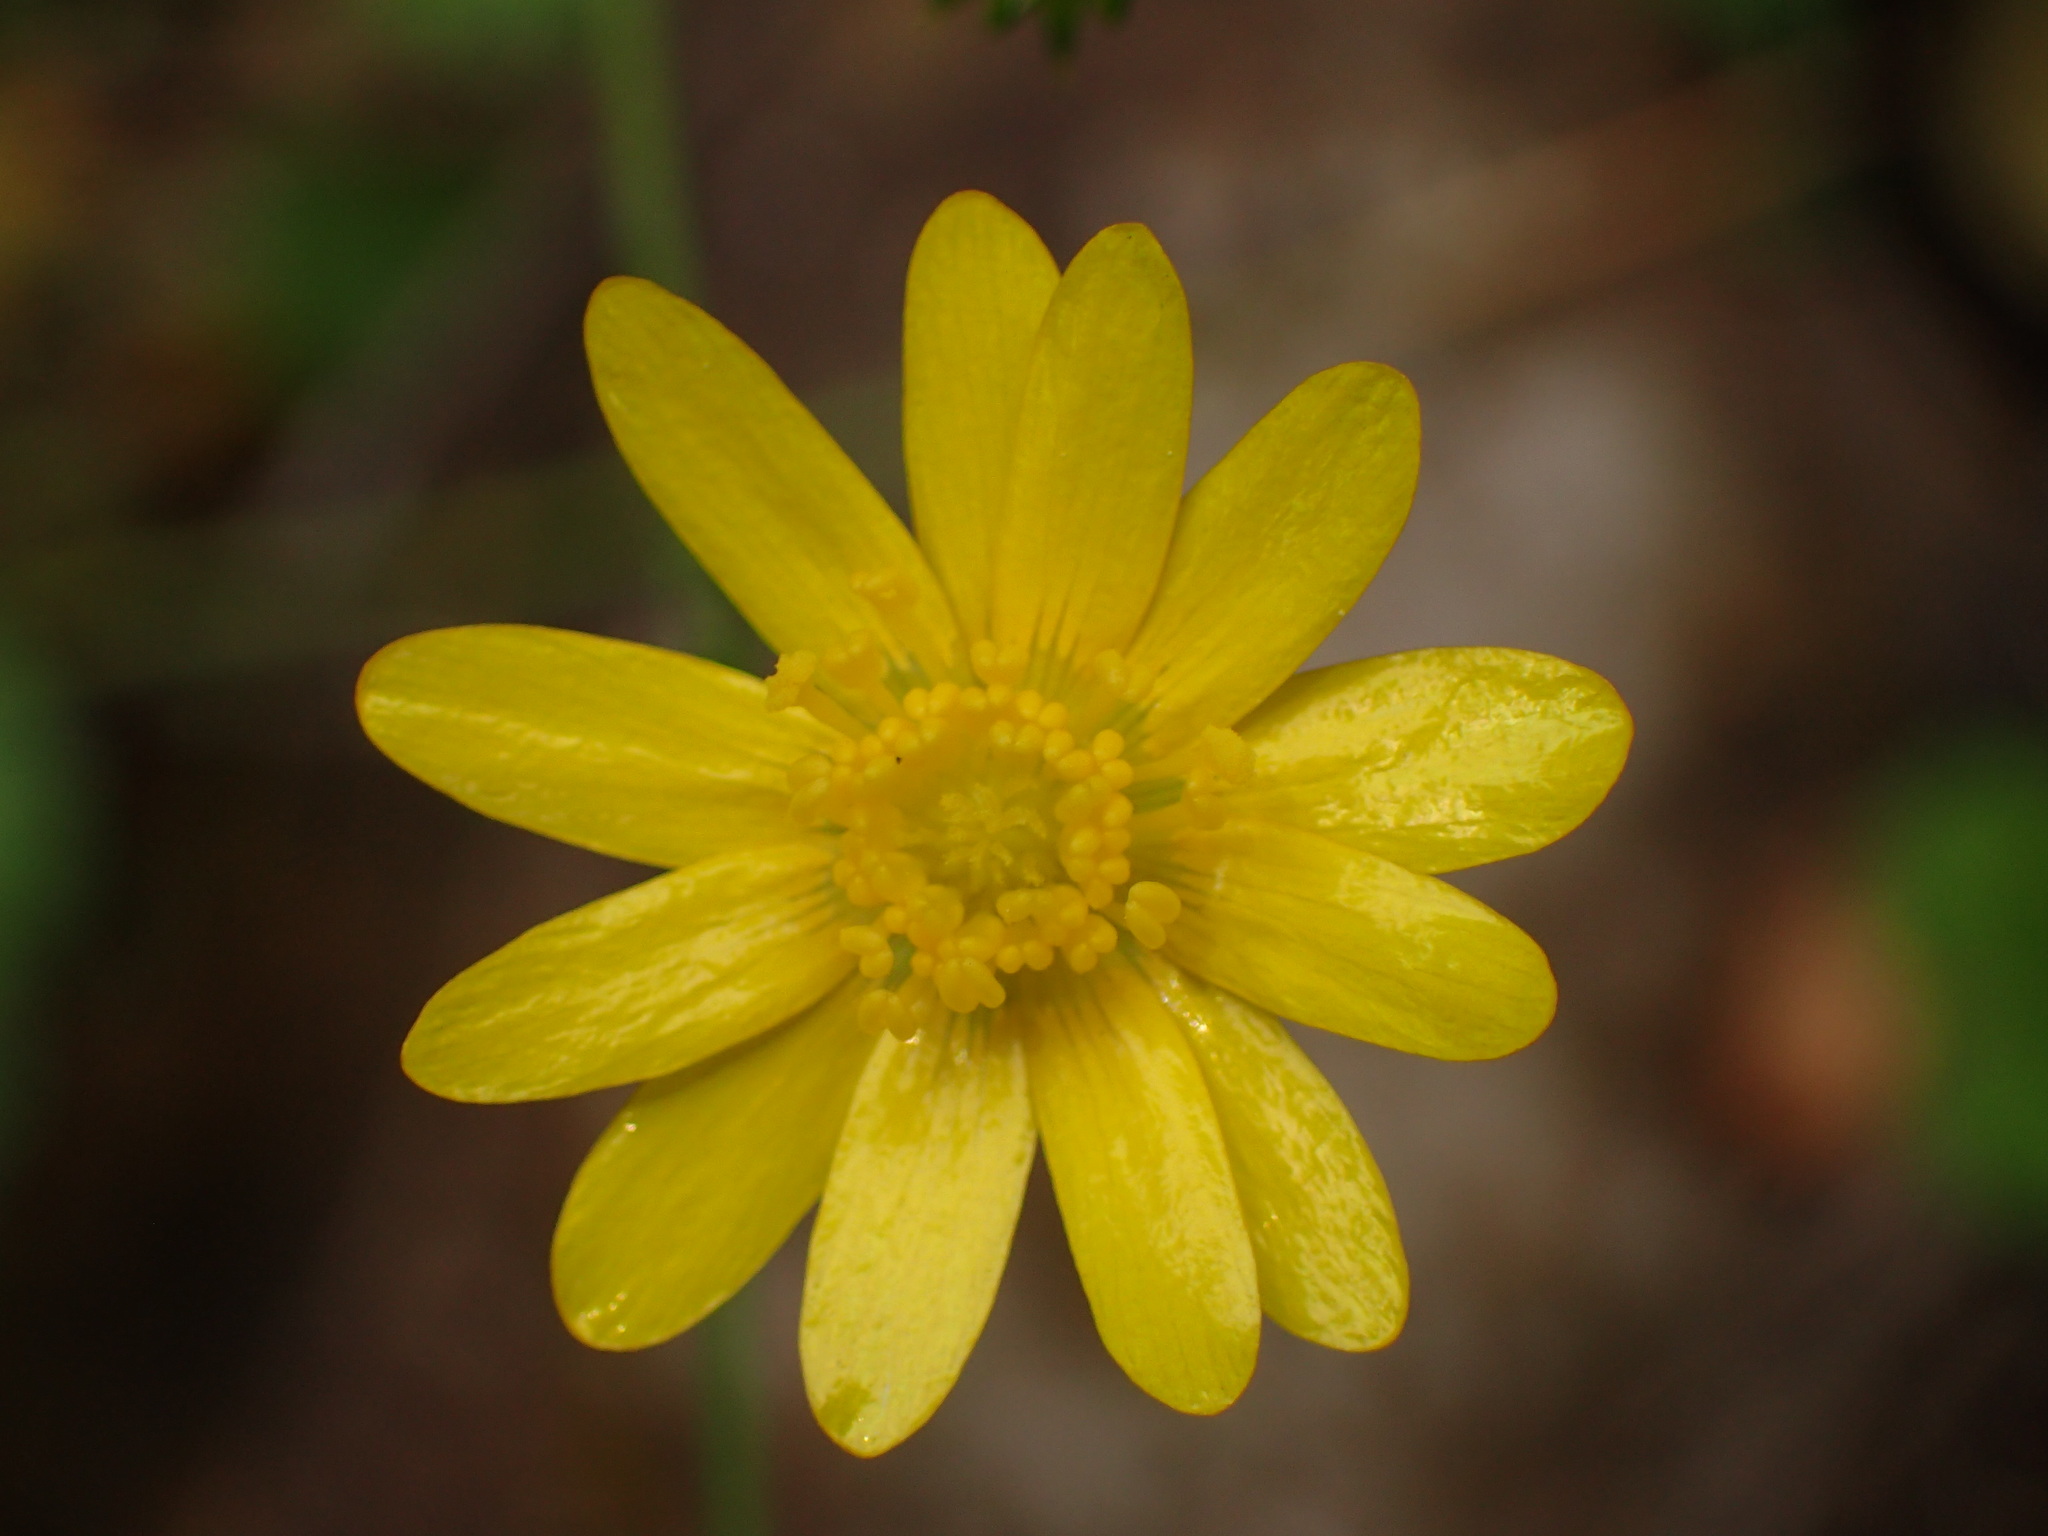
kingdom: Plantae
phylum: Tracheophyta
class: Magnoliopsida
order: Ranunculales
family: Ranunculaceae
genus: Ranunculus
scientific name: Ranunculus californicus
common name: California buttercup
